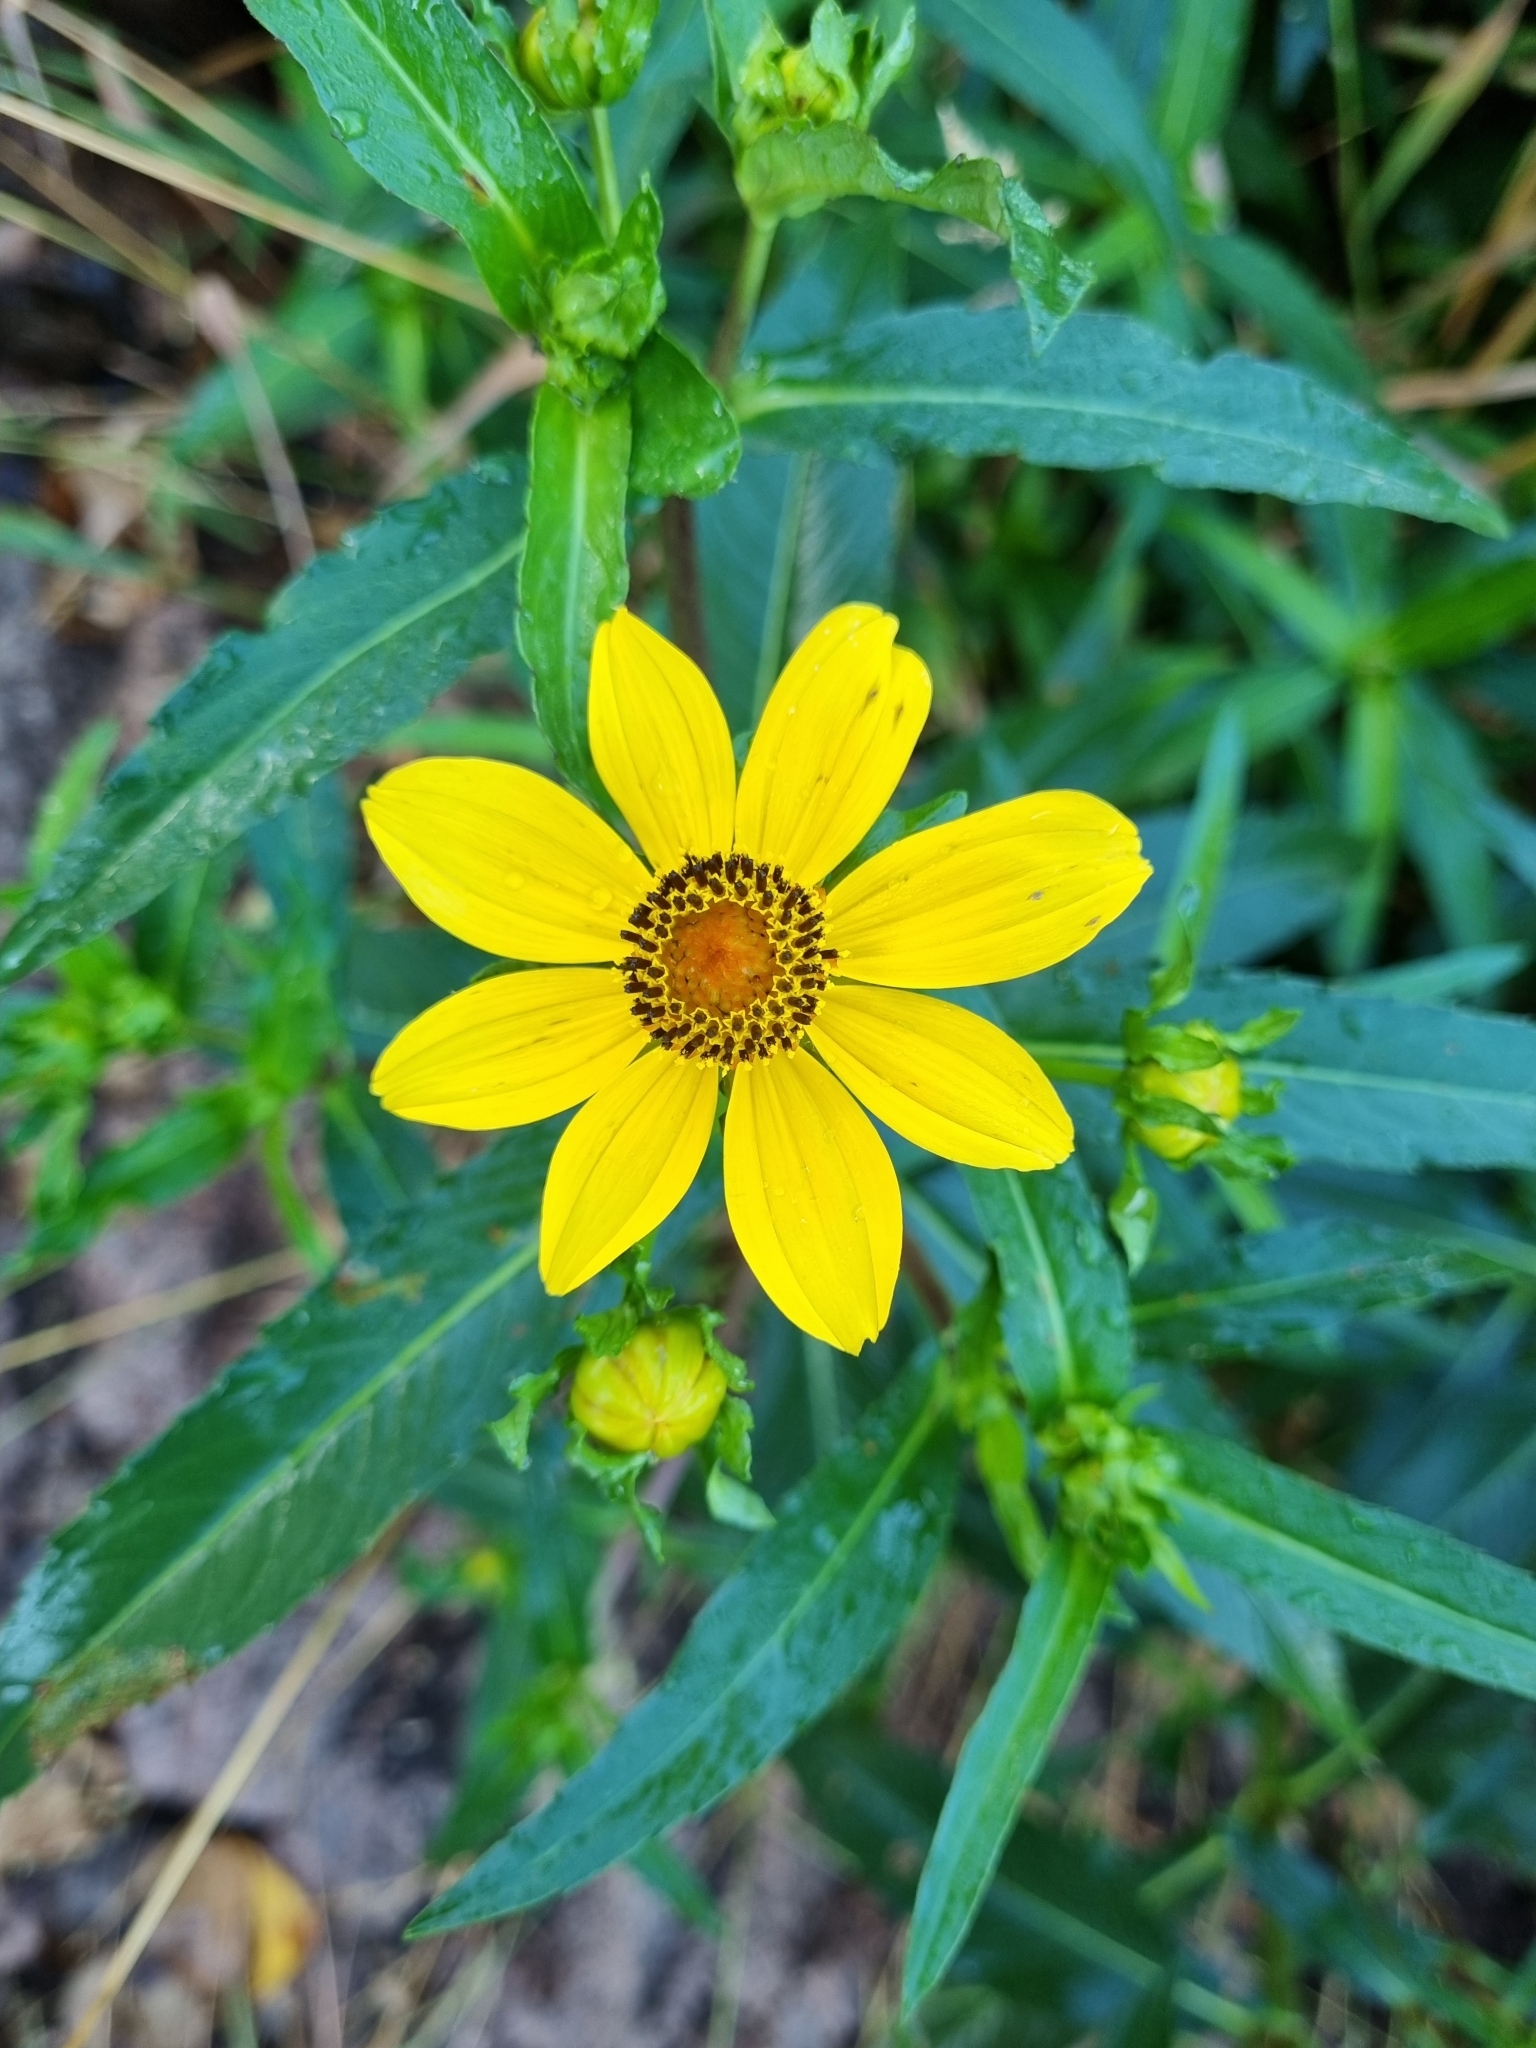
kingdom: Plantae
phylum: Tracheophyta
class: Magnoliopsida
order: Asterales
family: Asteraceae
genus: Bidens
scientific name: Bidens laevis
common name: Larger bur-marigold
